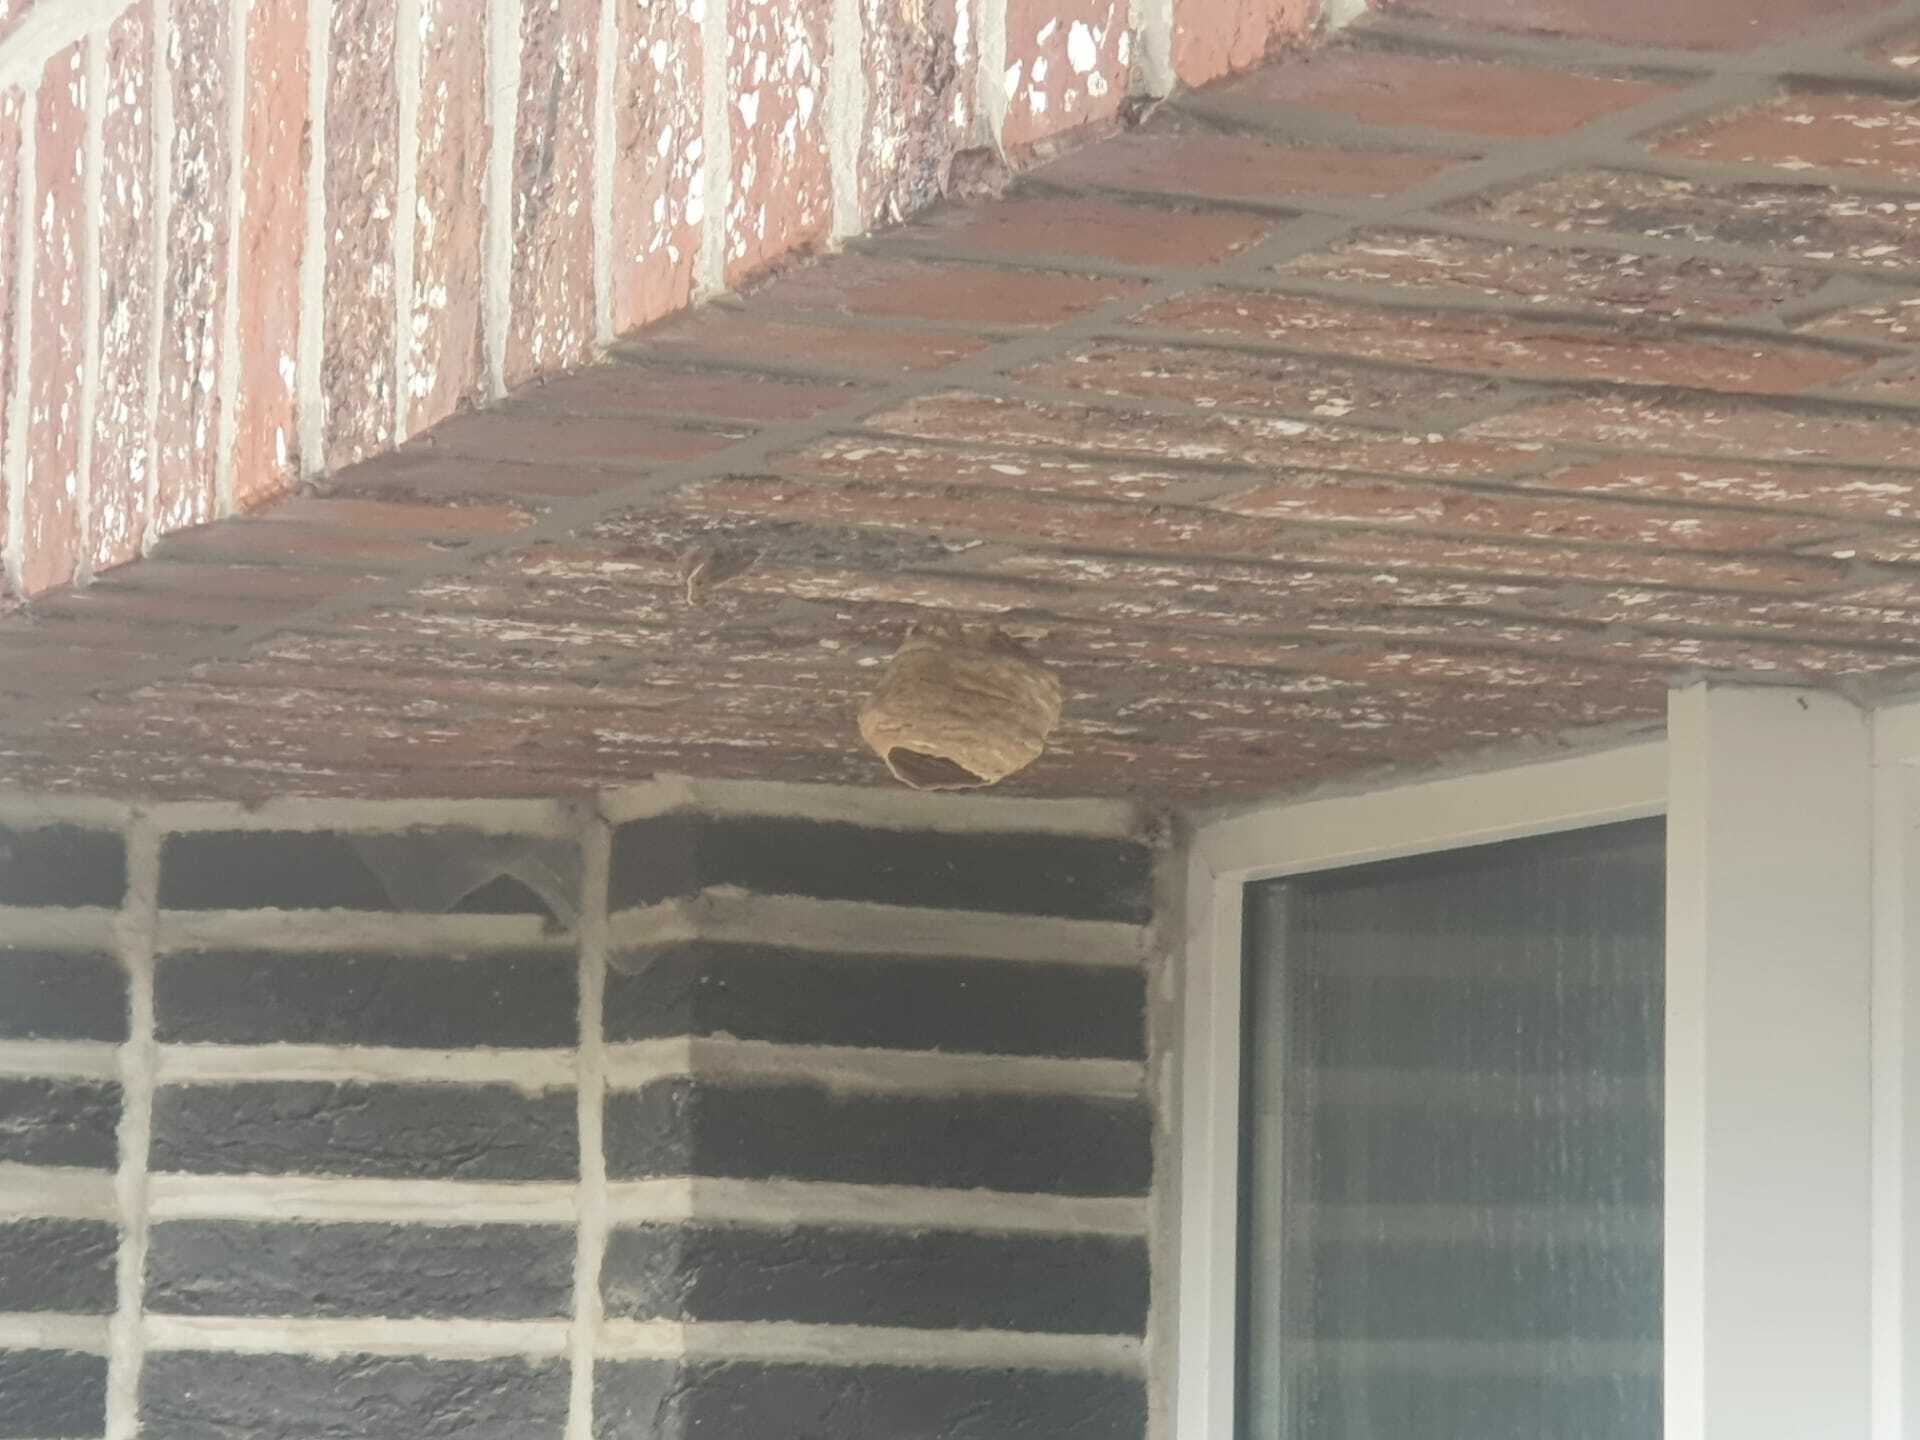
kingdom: Animalia
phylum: Arthropoda
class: Insecta
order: Hymenoptera
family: Vespidae
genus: Vespa
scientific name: Vespa velutina
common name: Asian hornet
